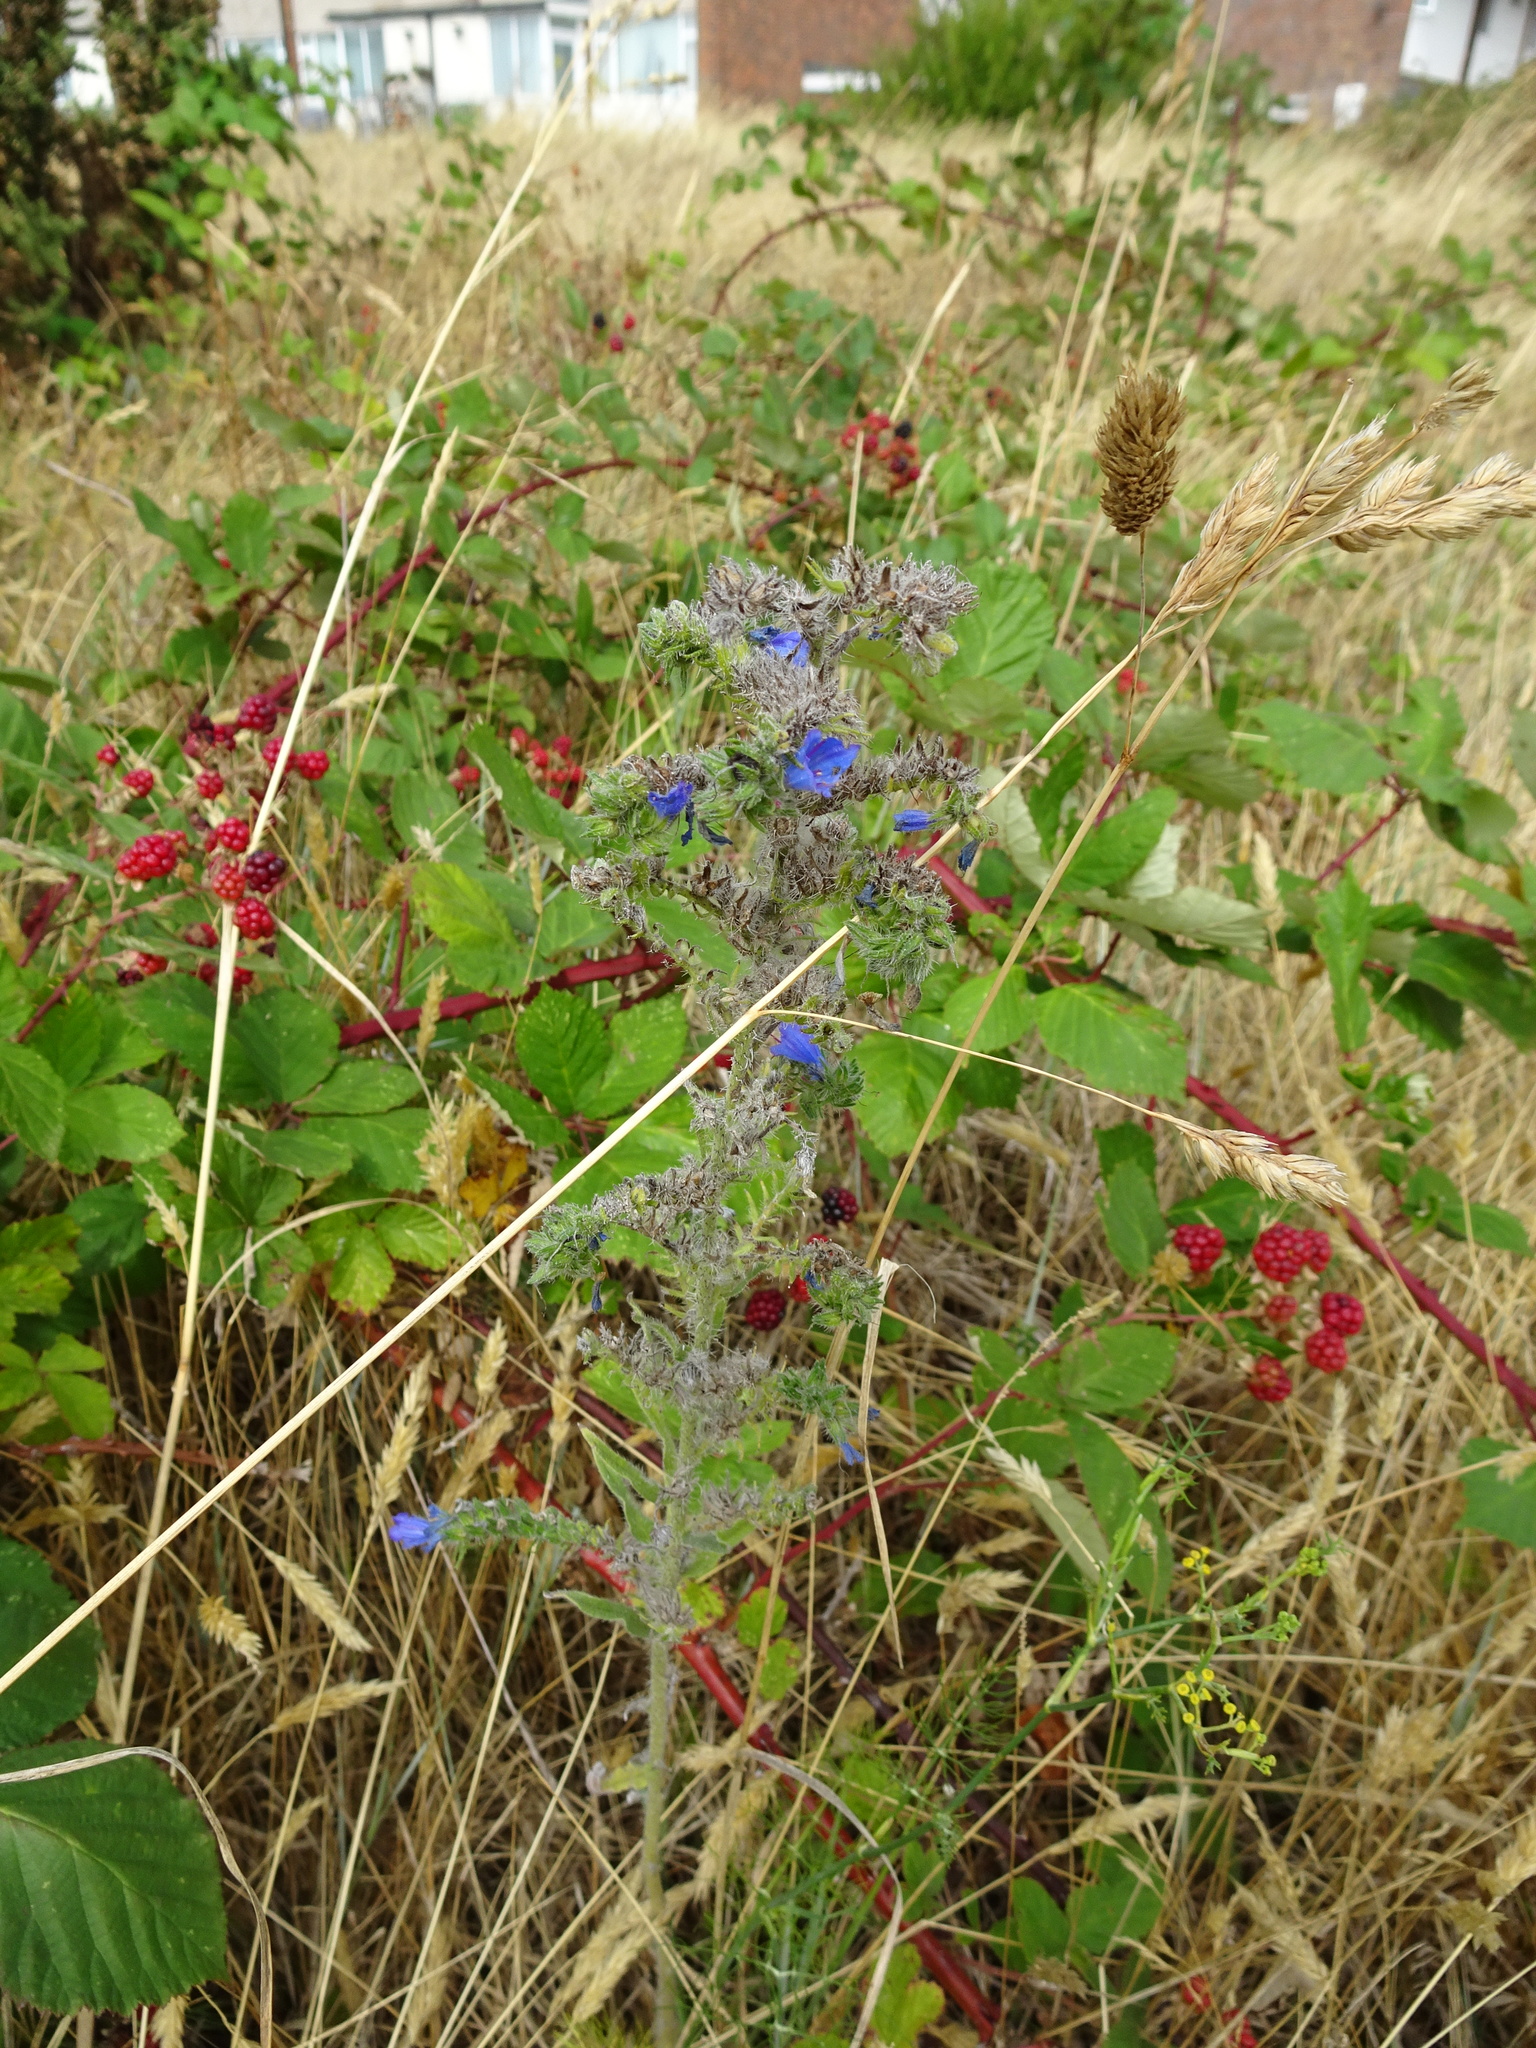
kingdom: Plantae
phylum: Tracheophyta
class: Magnoliopsida
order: Boraginales
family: Boraginaceae
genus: Echium
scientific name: Echium vulgare
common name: Common viper's bugloss
